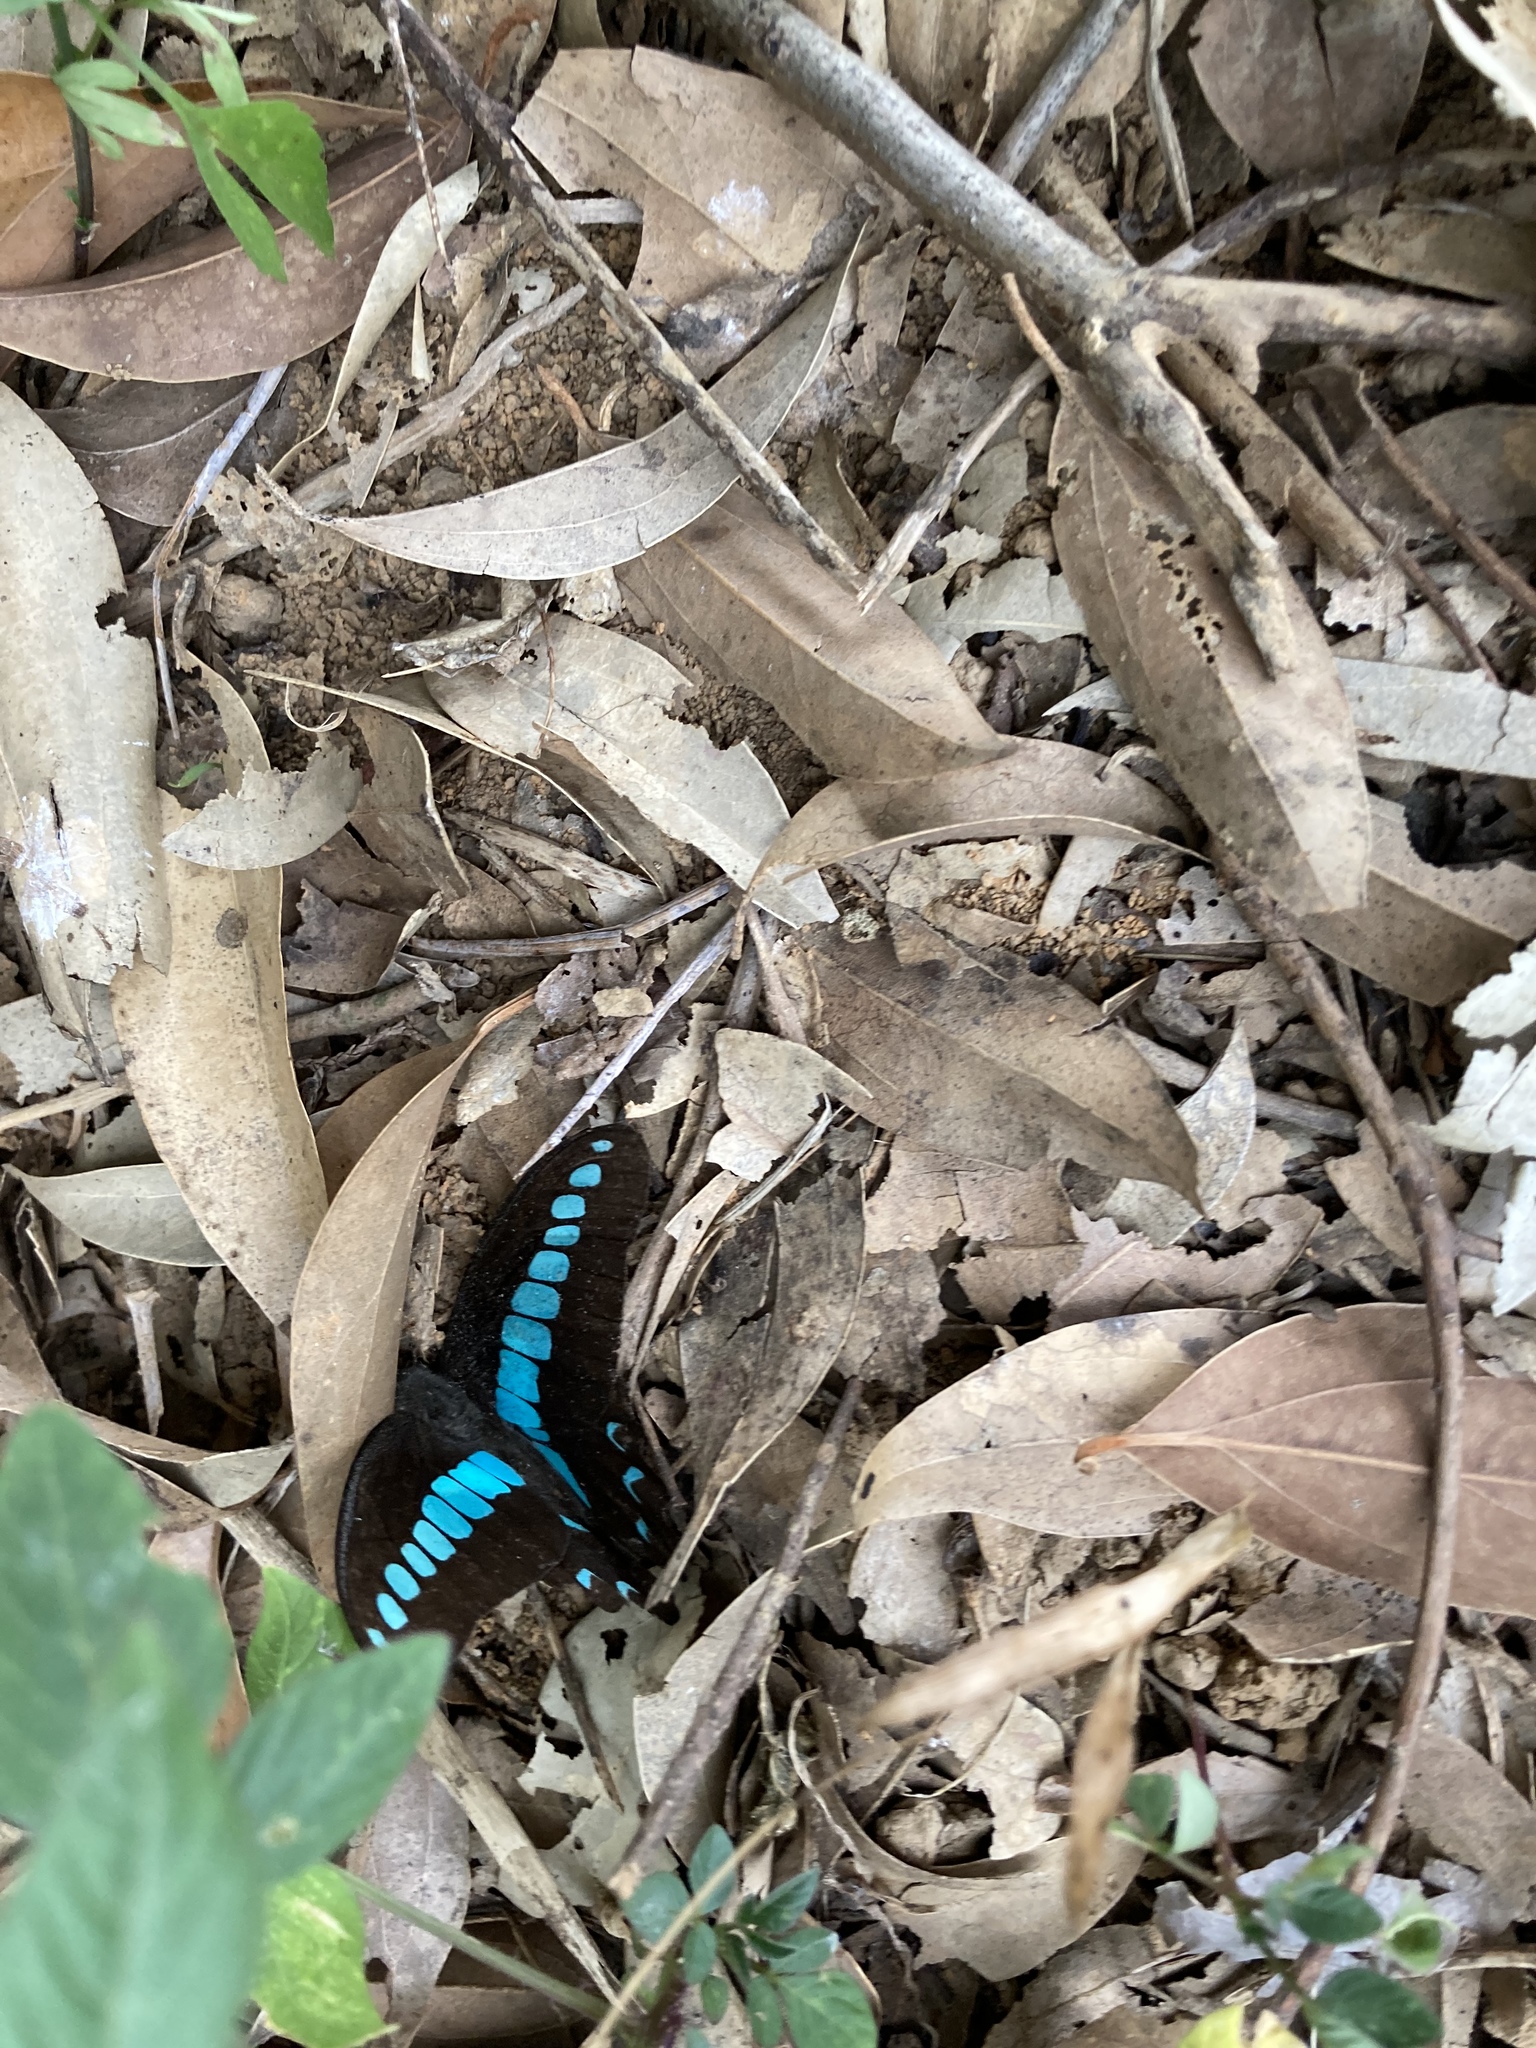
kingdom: Fungi
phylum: Ascomycota
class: Sordariomycetes
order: Microascales
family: Microascaceae
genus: Graphium
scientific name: Graphium sarpedon
